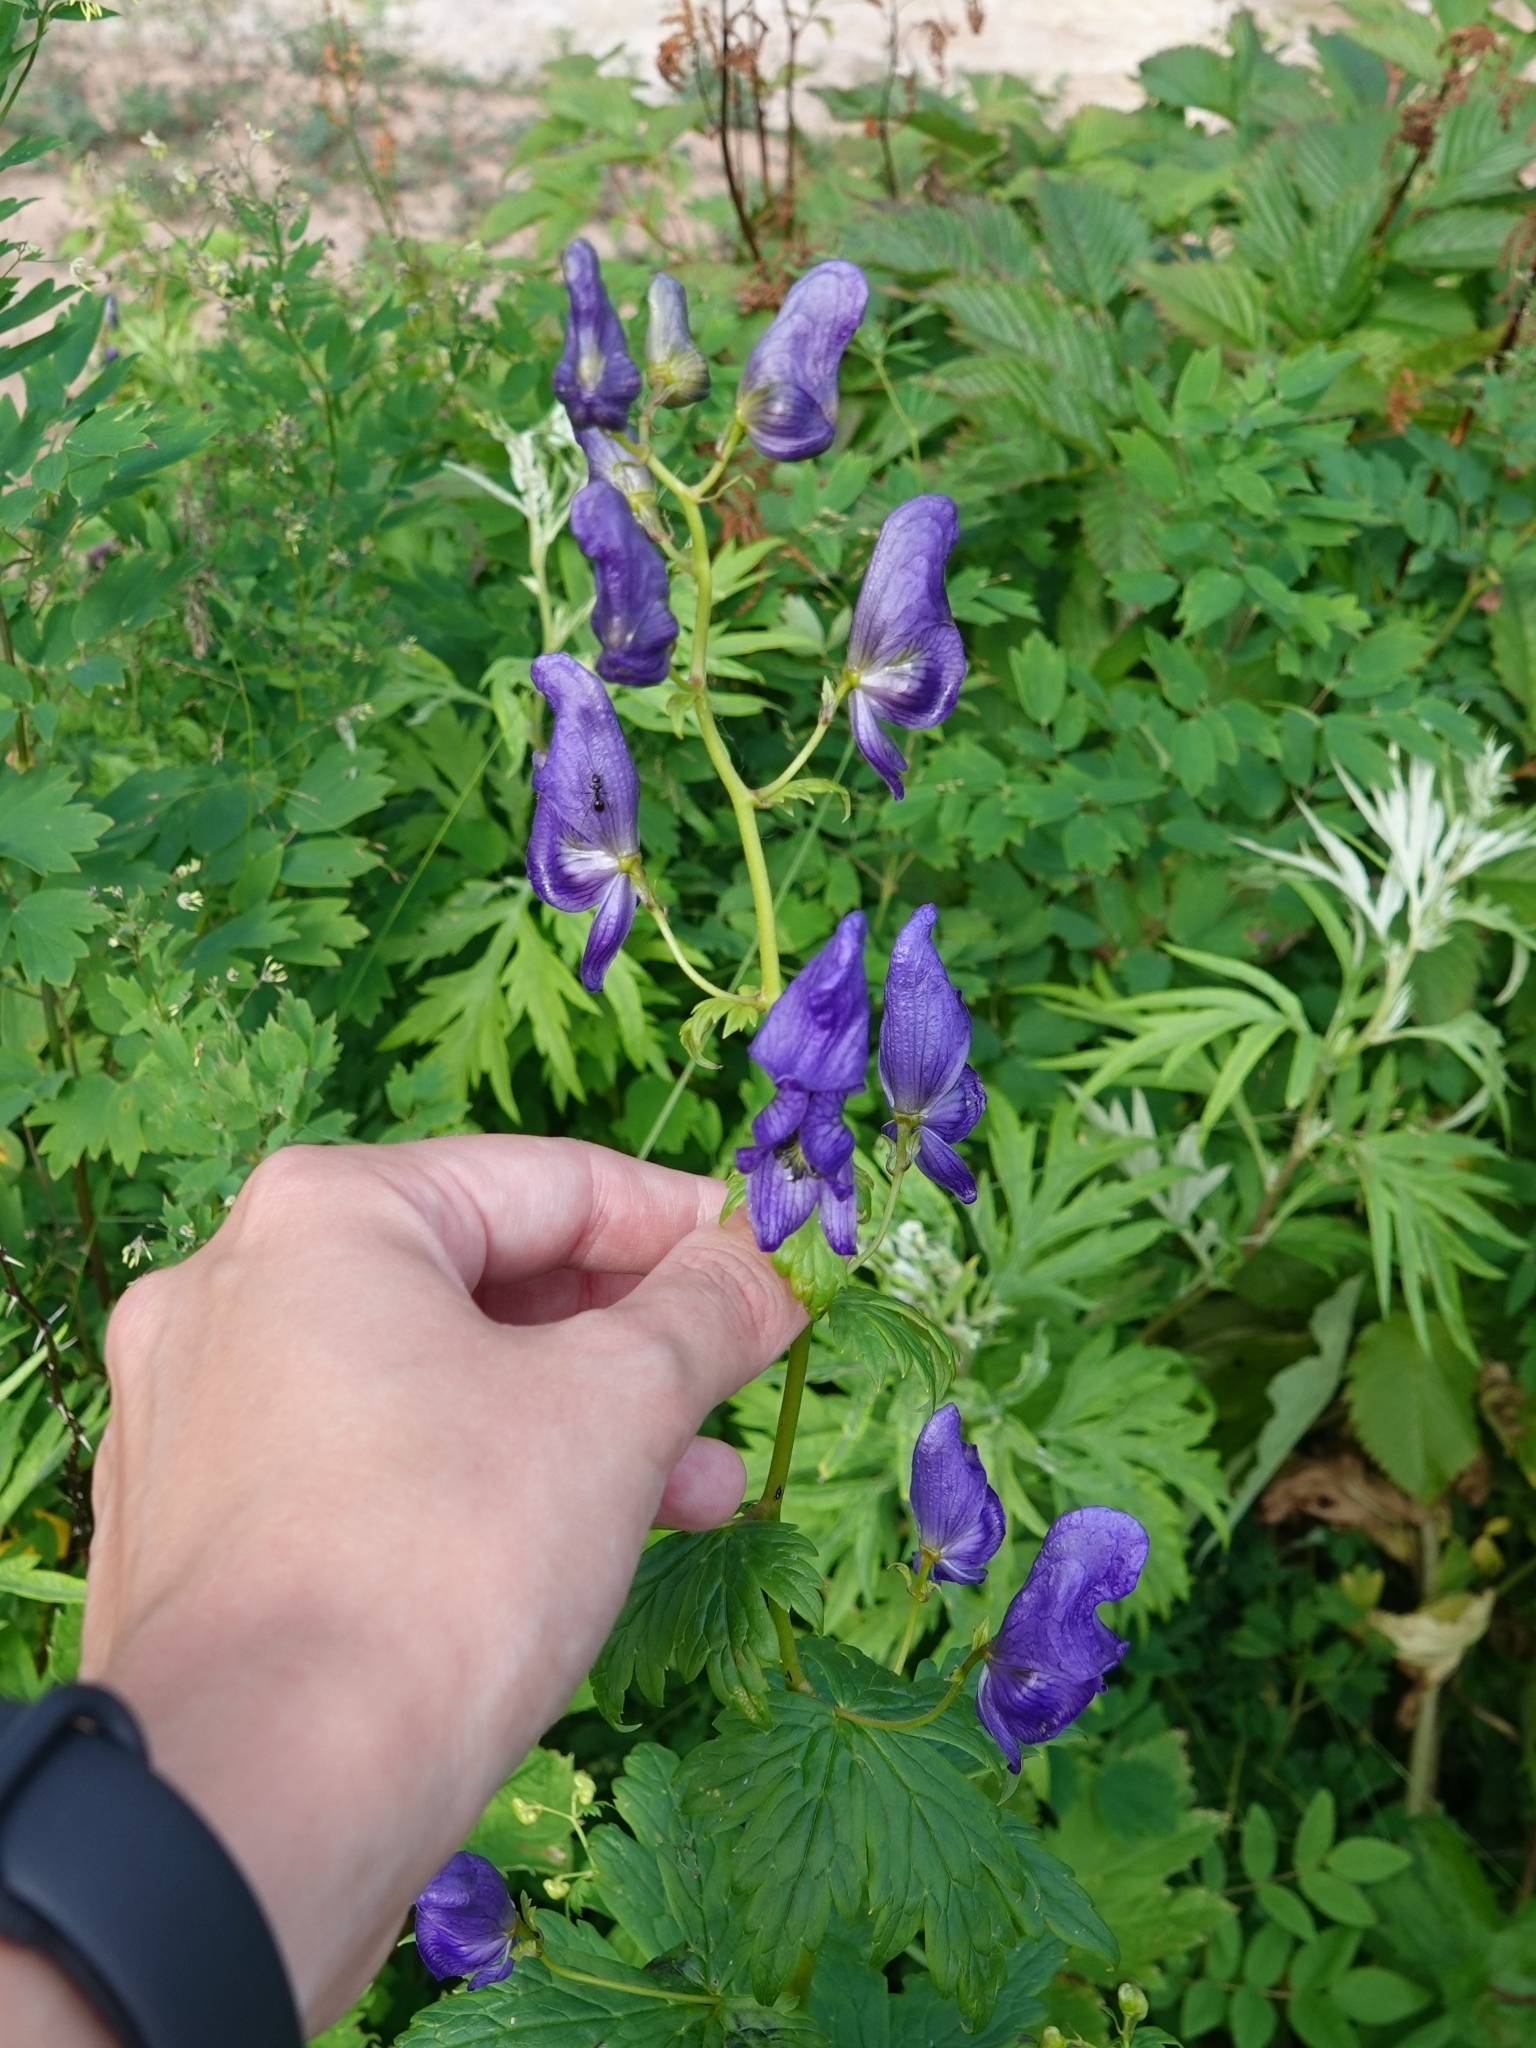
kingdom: Plantae
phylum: Tracheophyta
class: Magnoliopsida
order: Ranunculales
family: Ranunculaceae
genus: Aconitum
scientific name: Aconitum fischeri
